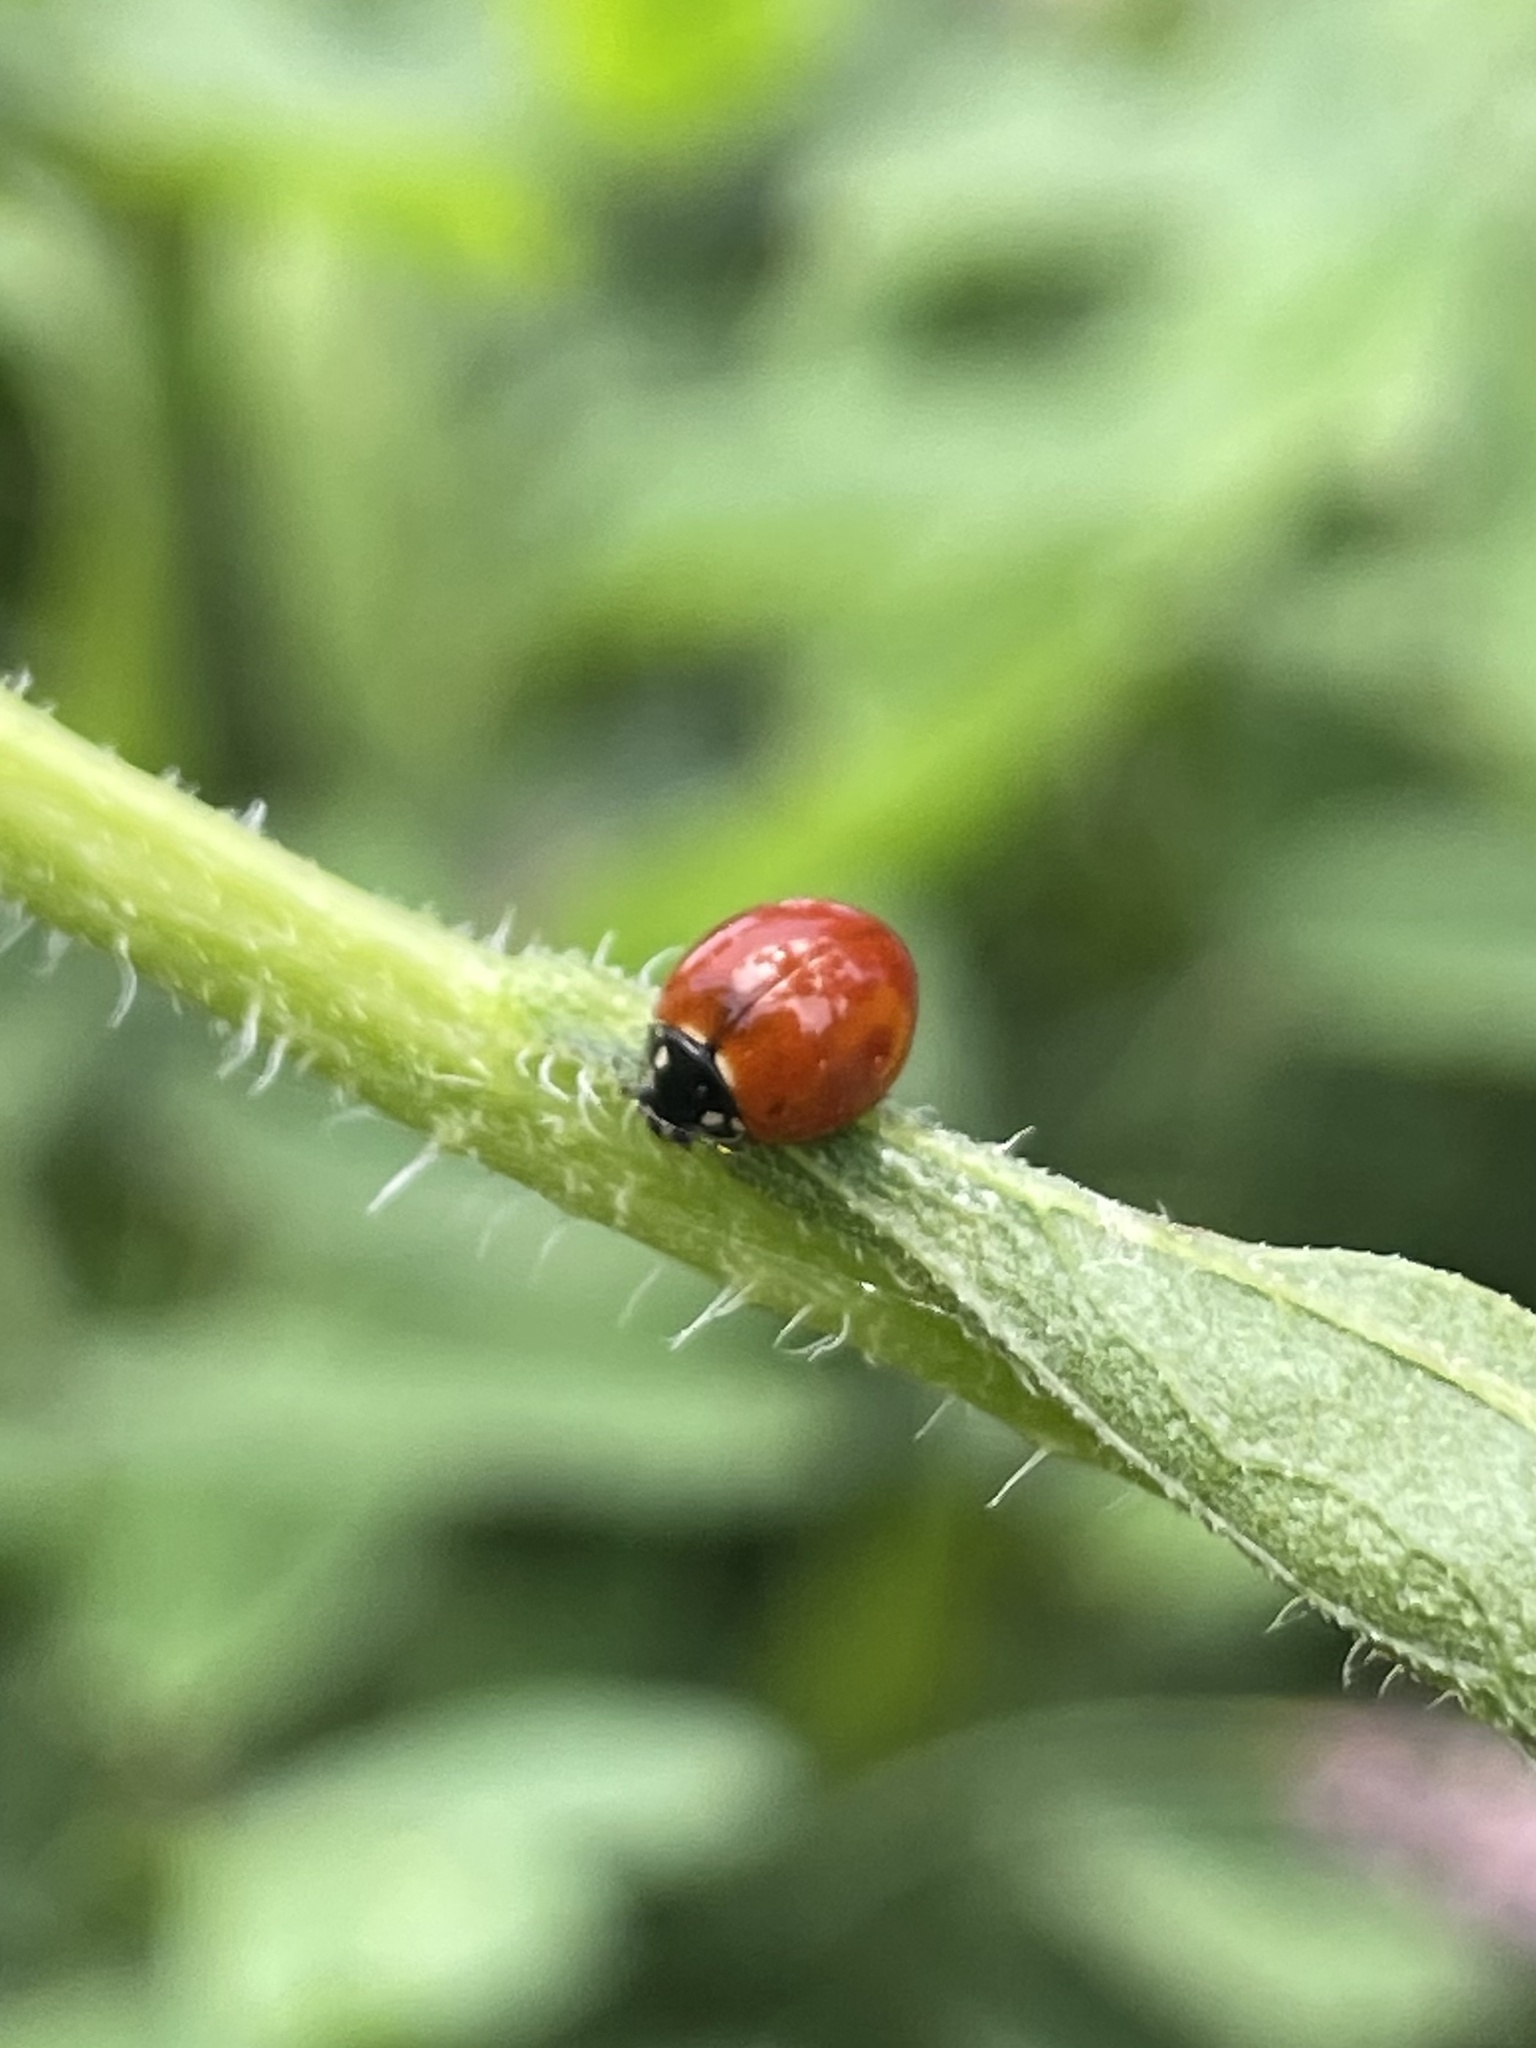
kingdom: Animalia
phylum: Arthropoda
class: Insecta
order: Coleoptera
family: Coccinellidae
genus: Cycloneda
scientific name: Cycloneda sanguinea
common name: Ladybird beetle
